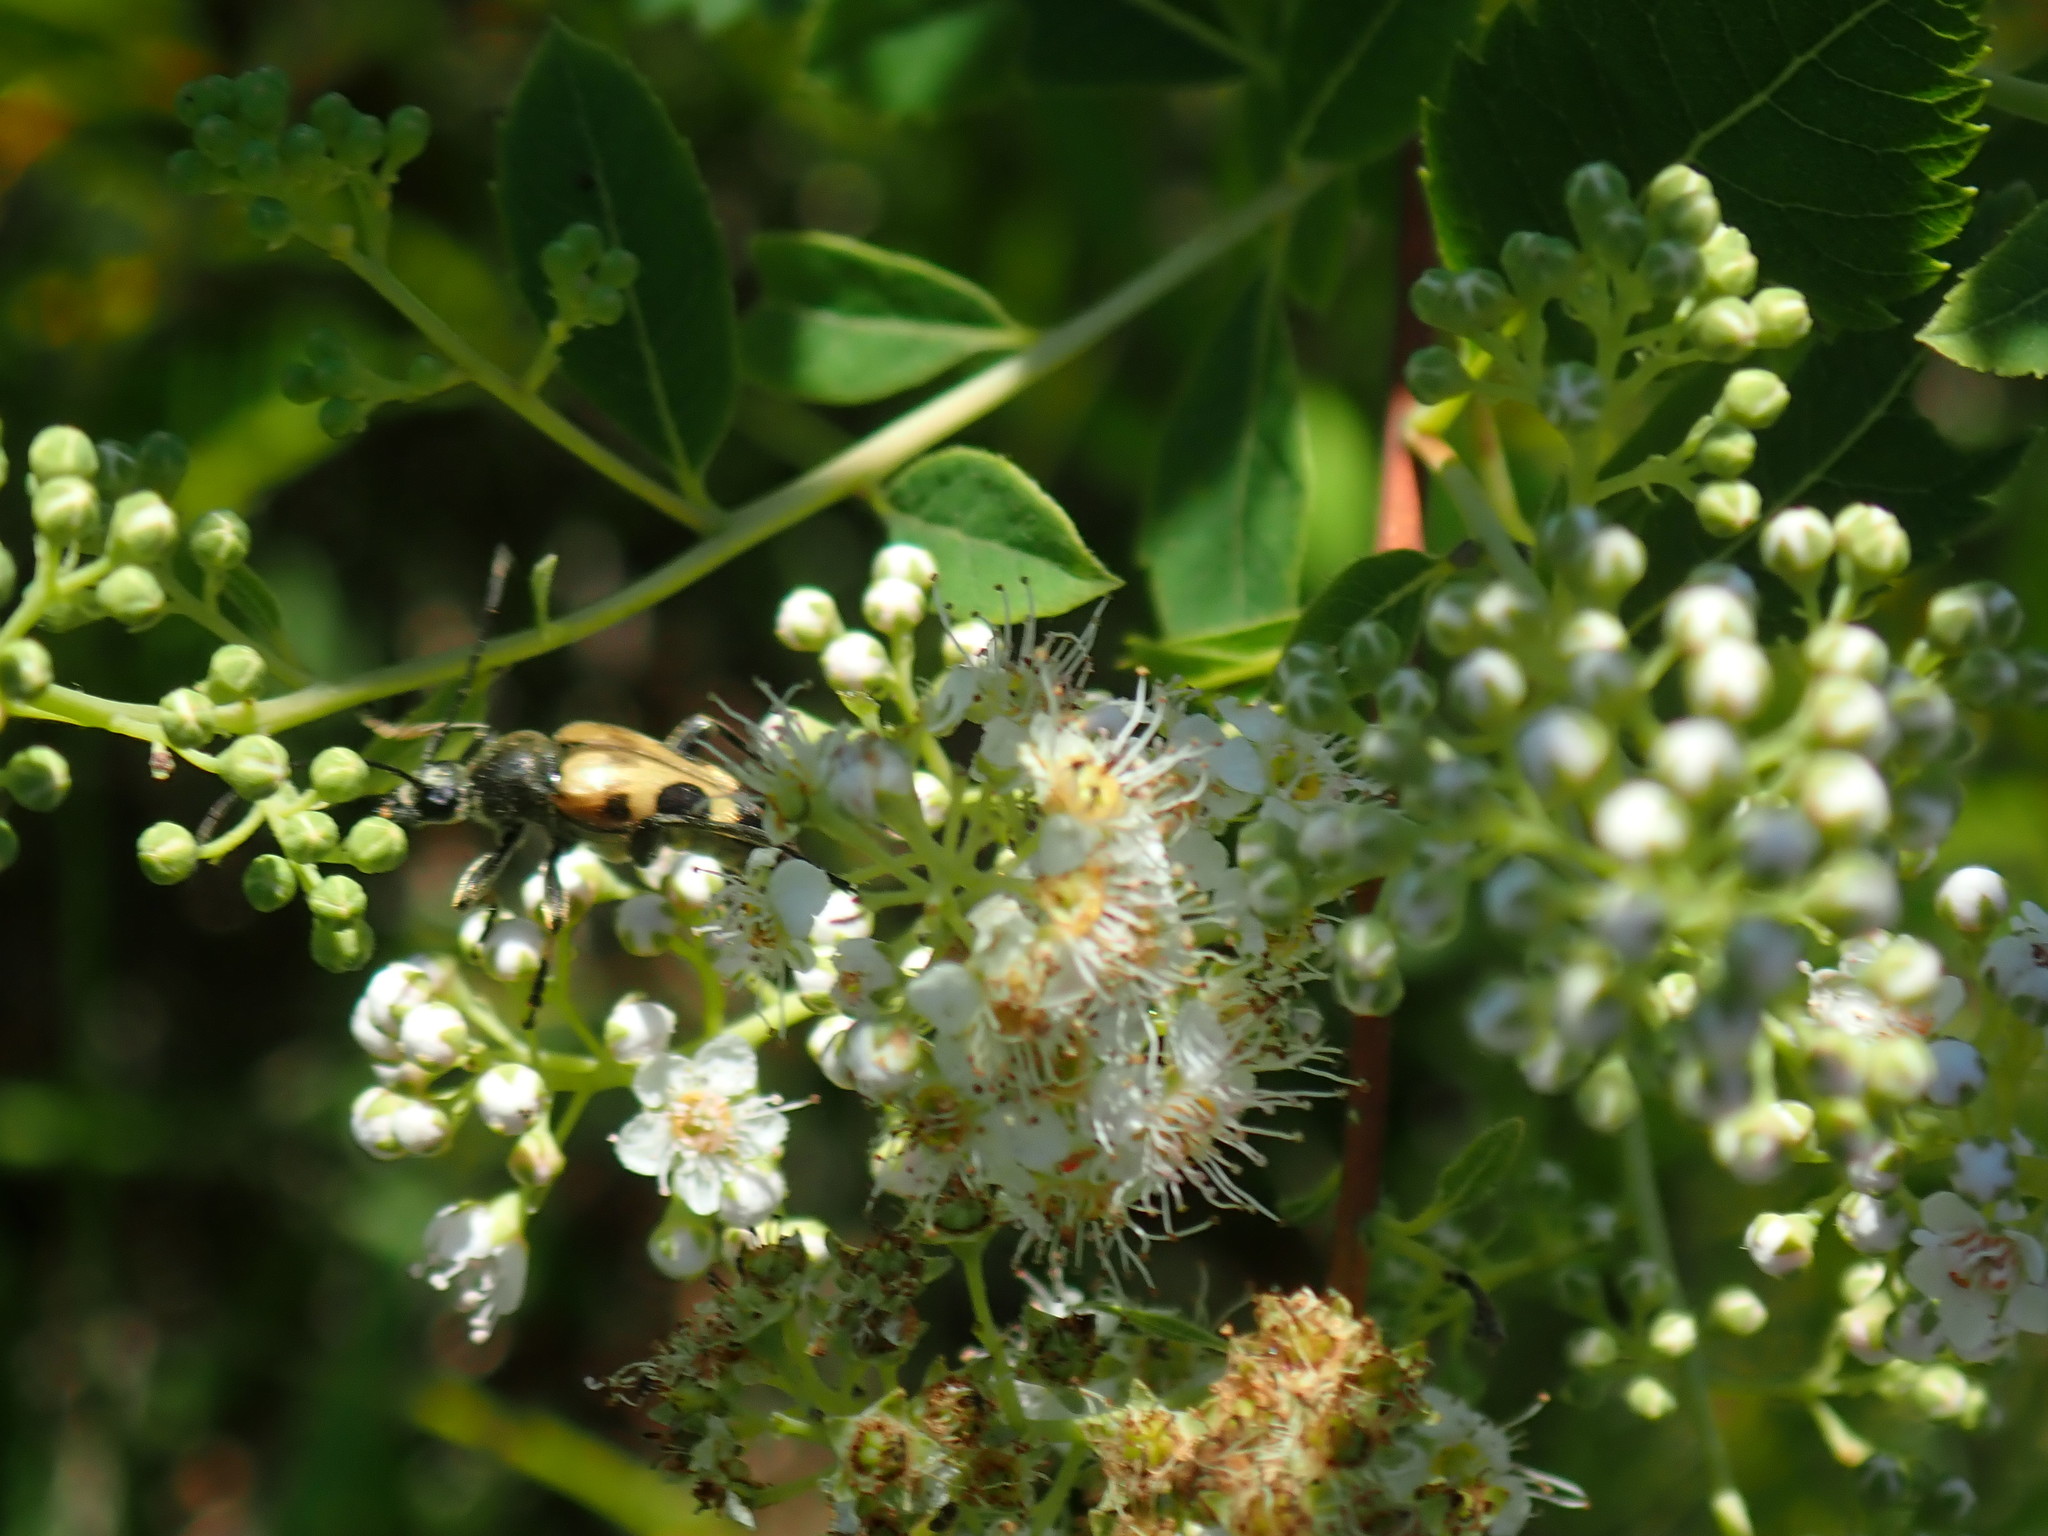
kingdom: Animalia
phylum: Arthropoda
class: Insecta
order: Coleoptera
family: Cerambycidae
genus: Judolia
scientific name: Judolia cordifera
